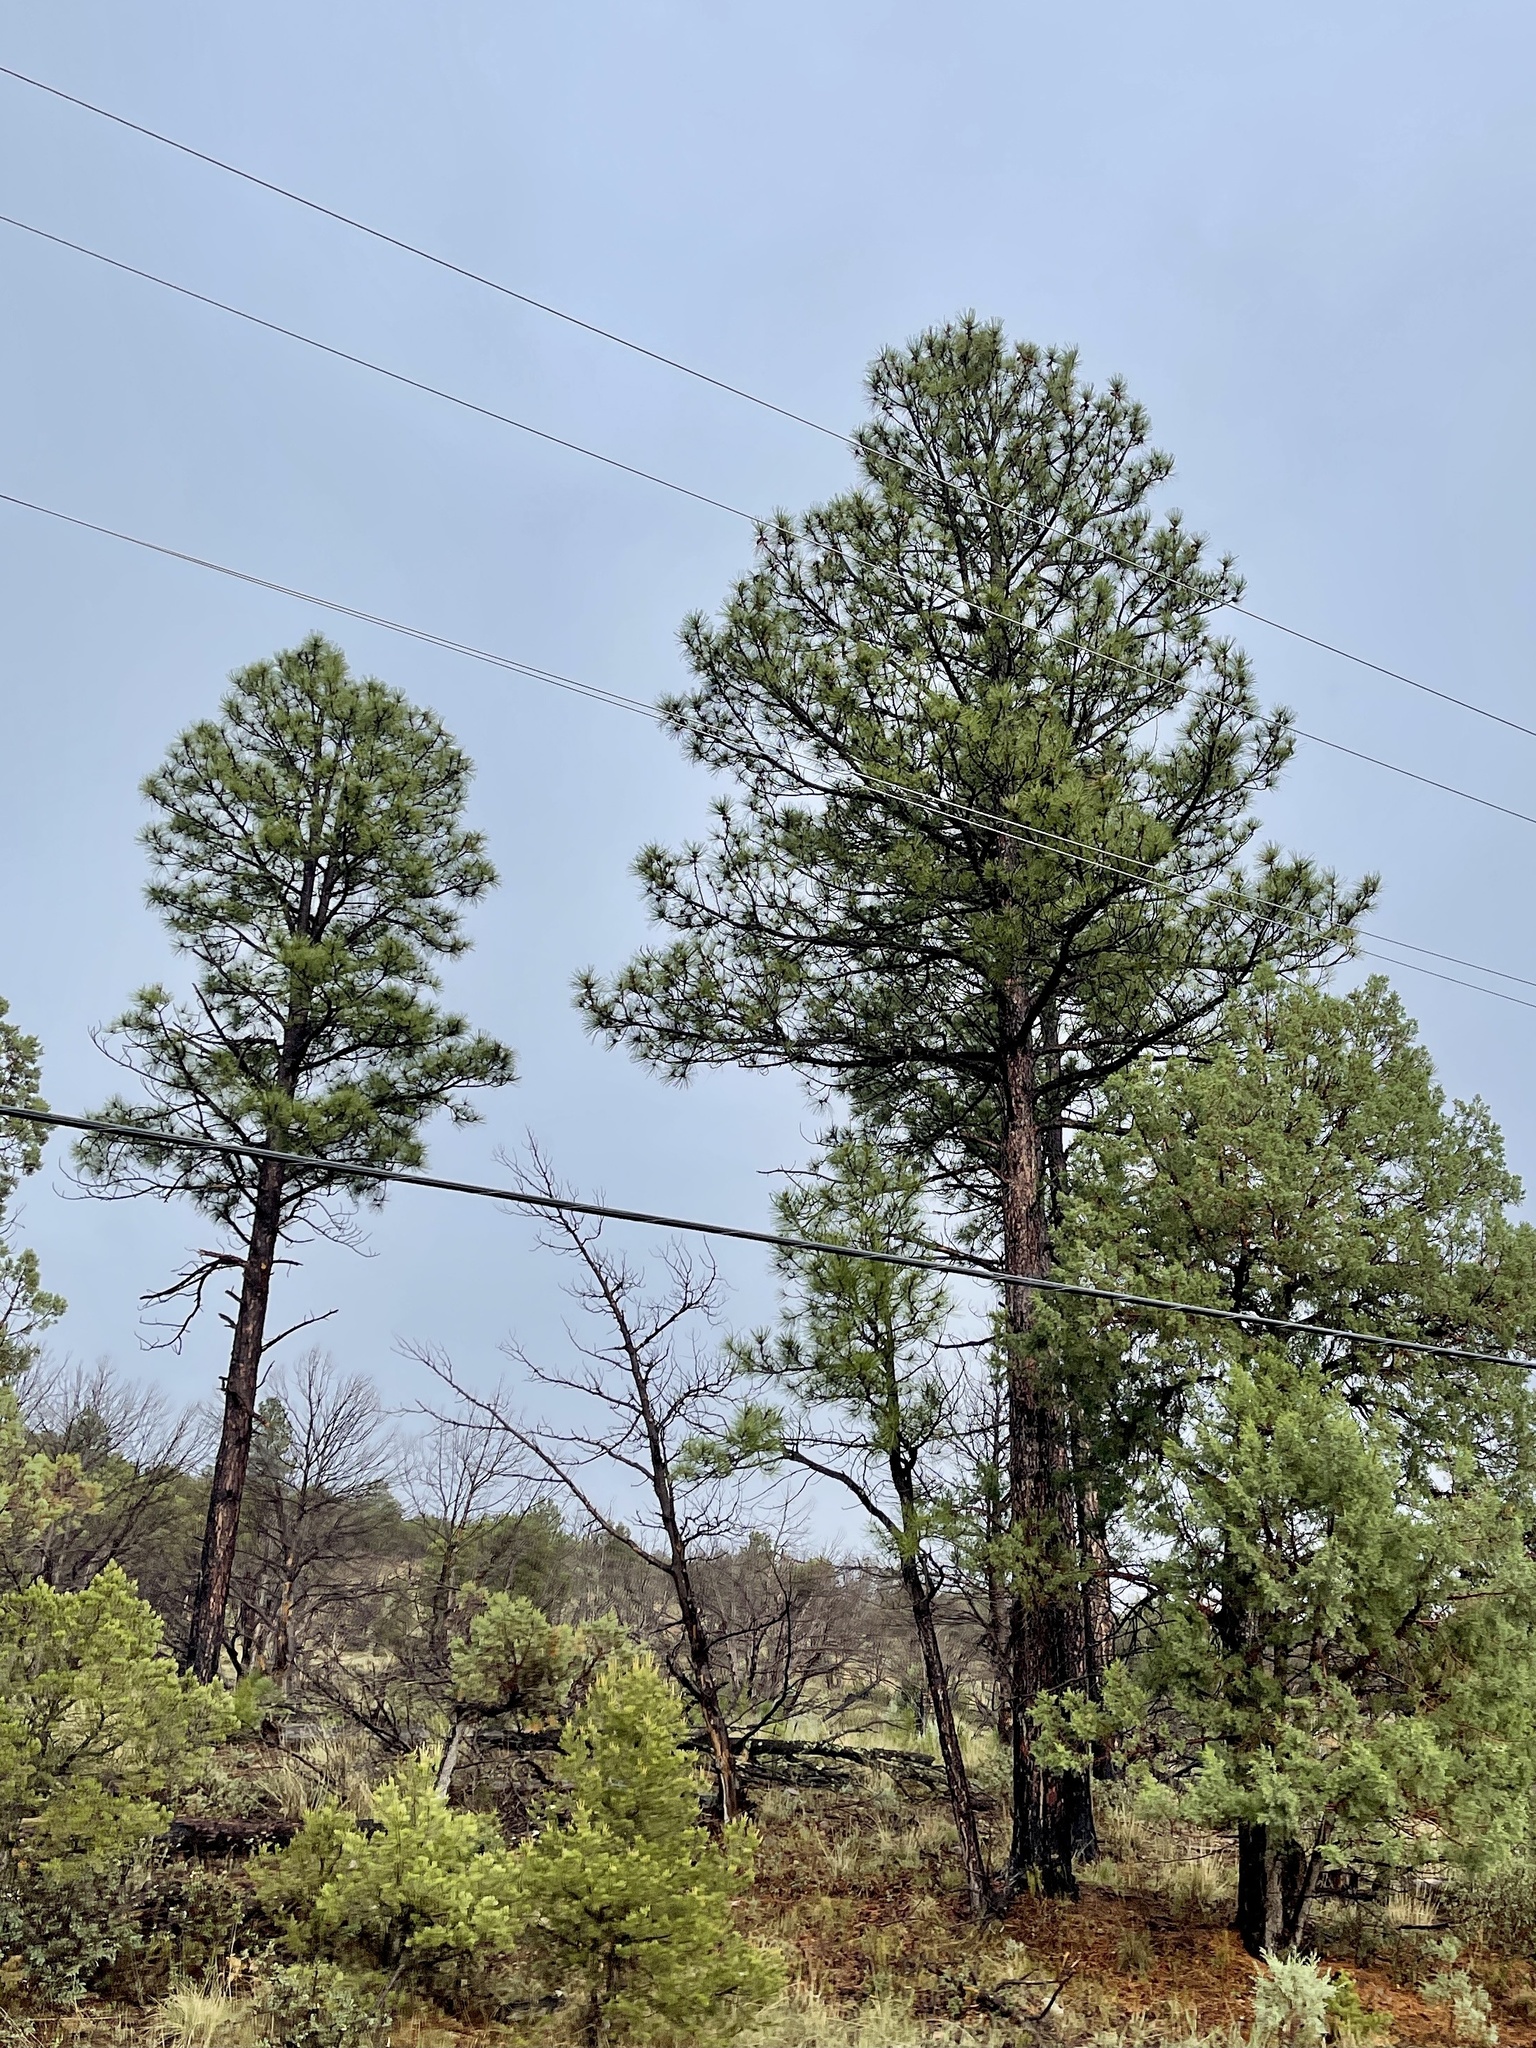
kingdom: Plantae
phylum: Tracheophyta
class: Pinopsida
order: Pinales
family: Pinaceae
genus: Pinus
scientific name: Pinus ponderosa
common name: Western yellow-pine
